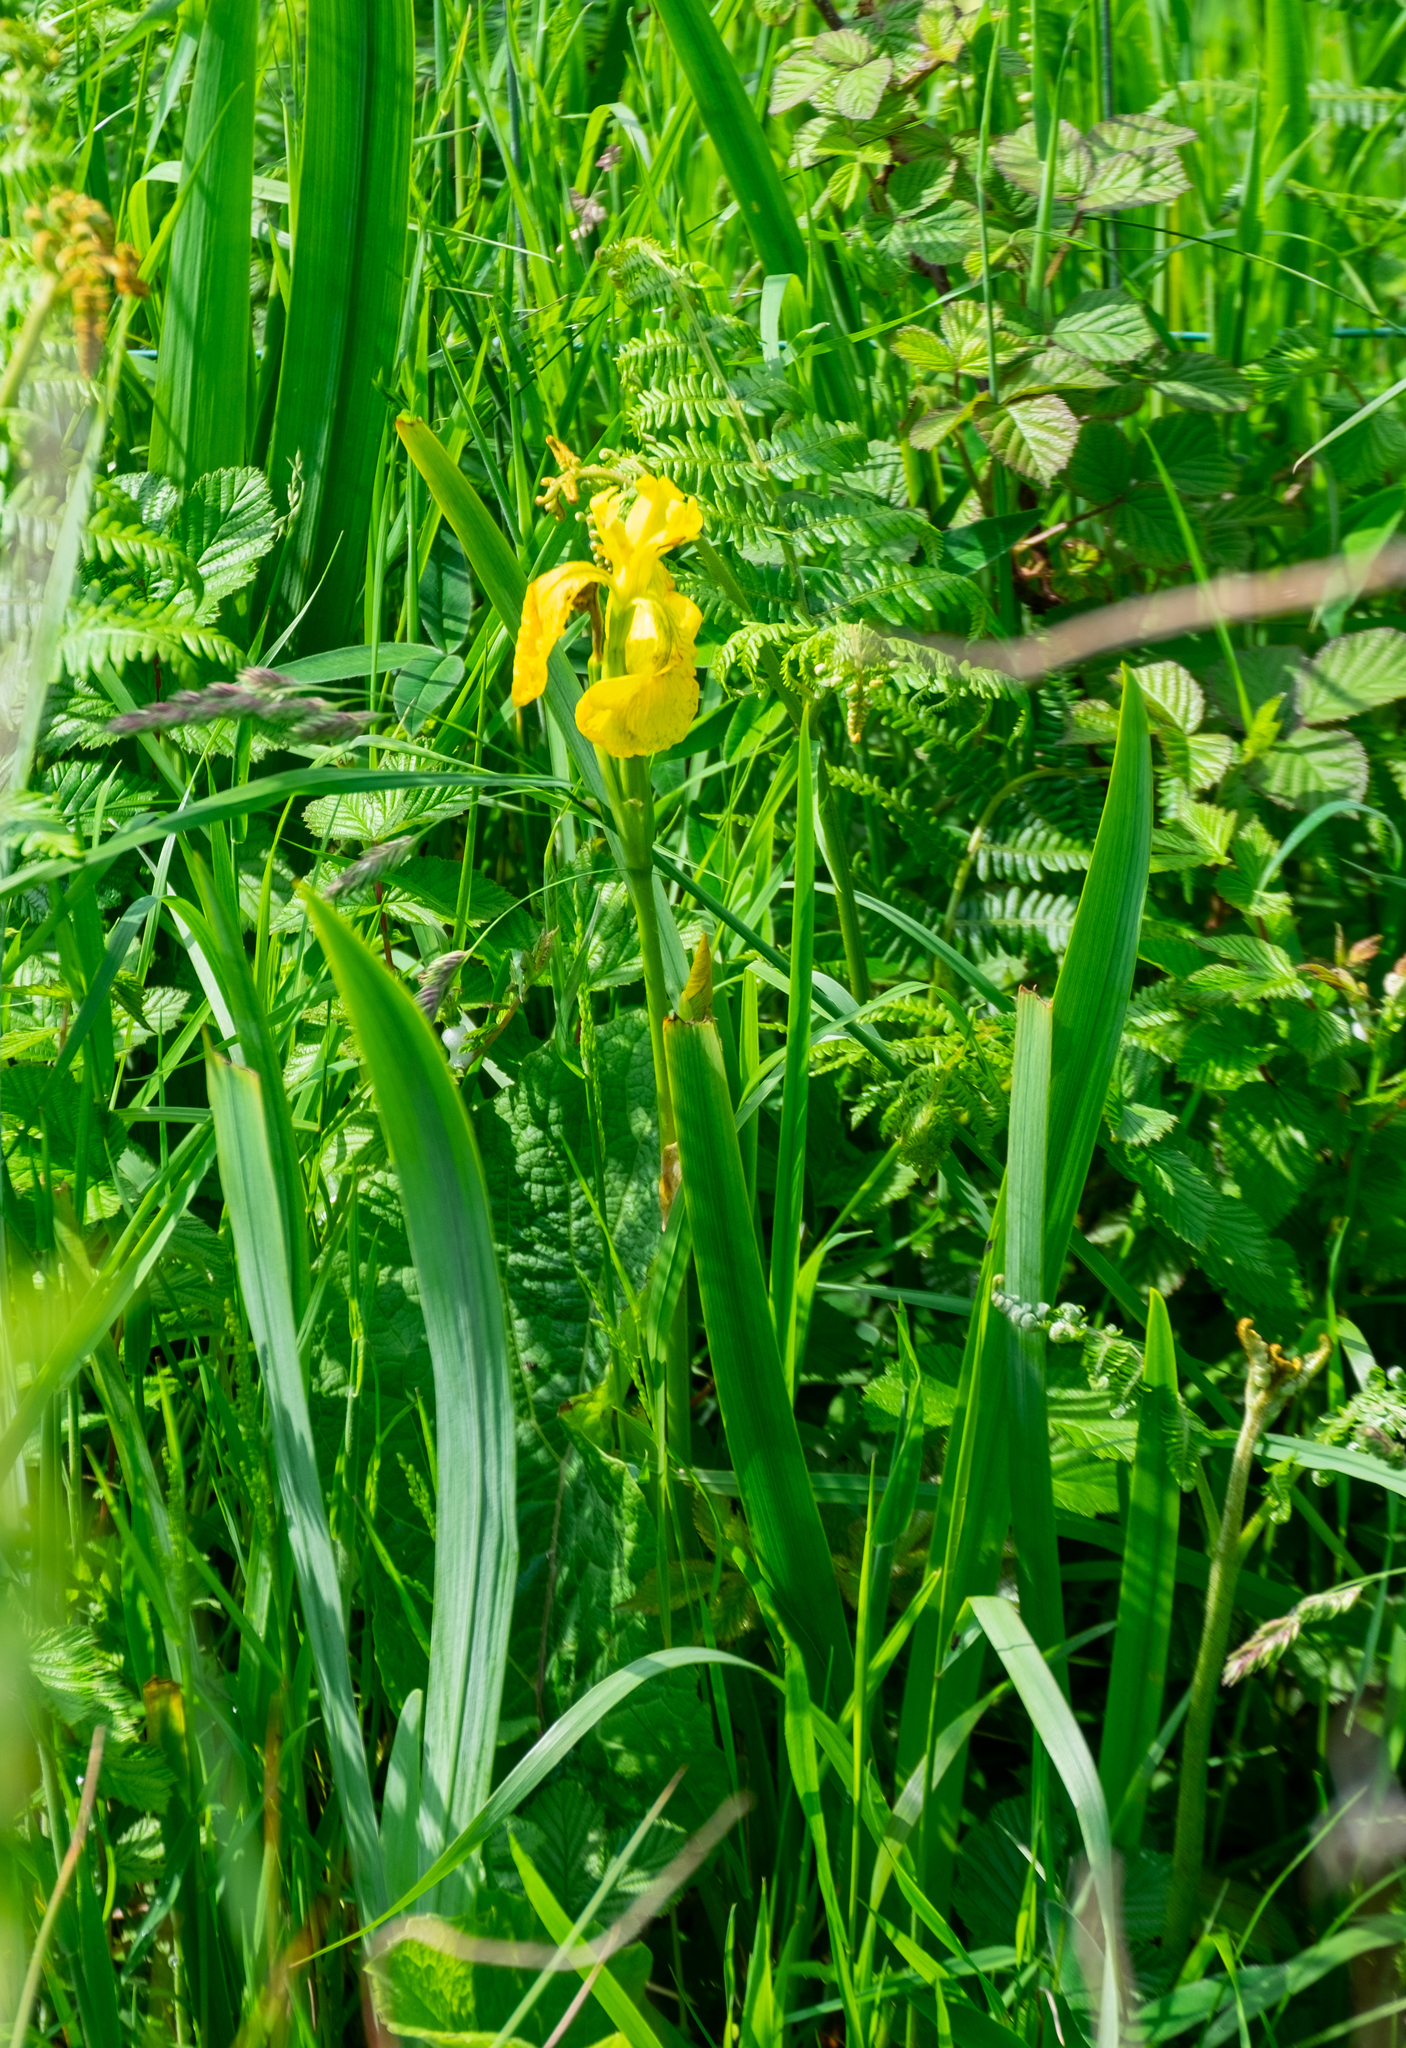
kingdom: Plantae
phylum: Tracheophyta
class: Liliopsida
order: Asparagales
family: Iridaceae
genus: Iris
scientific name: Iris pseudacorus
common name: Yellow flag
